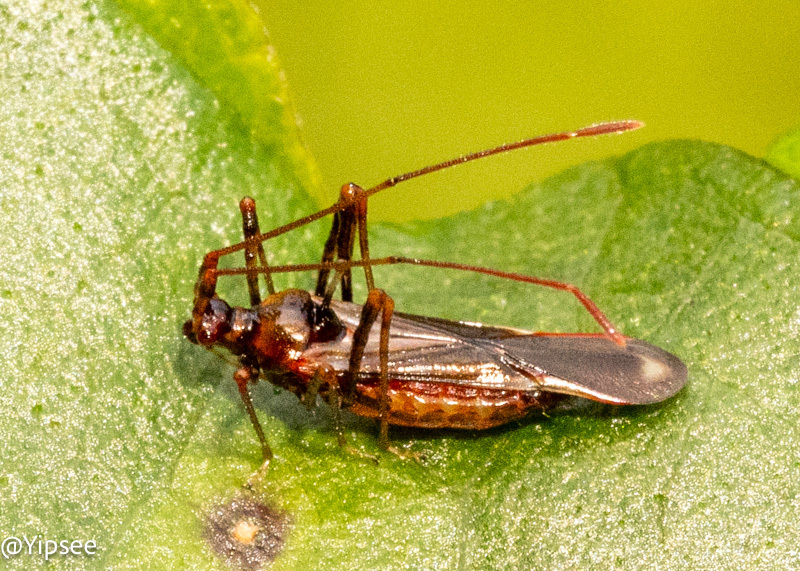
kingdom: Animalia
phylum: Arthropoda
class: Insecta
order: Hemiptera
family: Miridae
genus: Helopeltis
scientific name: Helopeltis cinchonae
